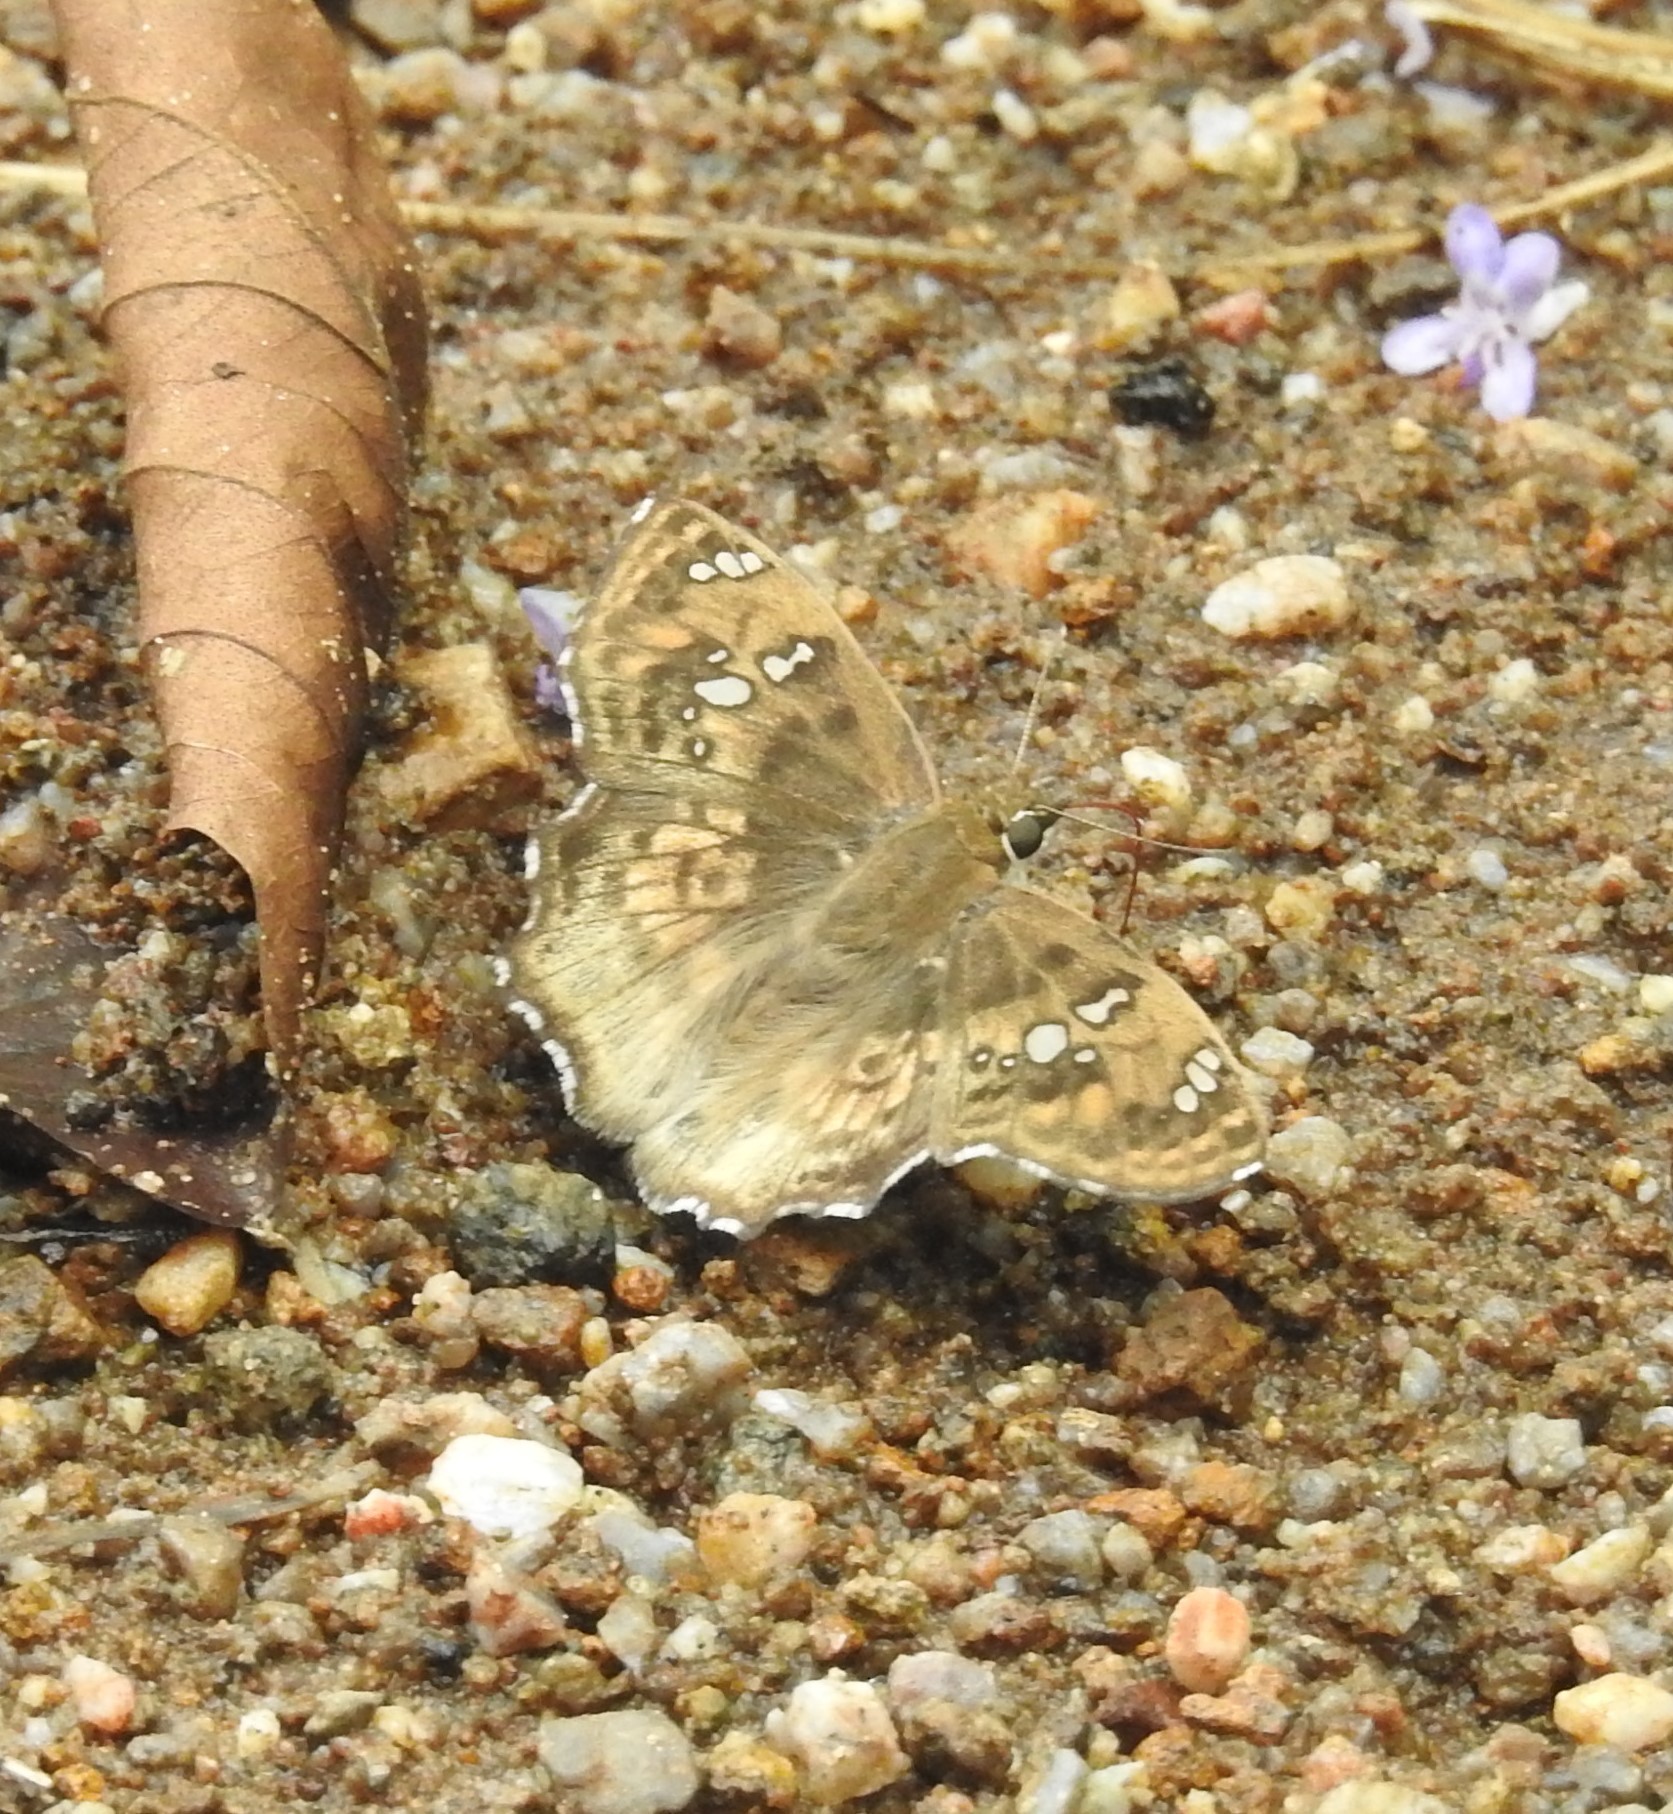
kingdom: Animalia
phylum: Arthropoda
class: Insecta
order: Lepidoptera
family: Hesperiidae
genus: Caprona
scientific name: Caprona ransonnettii
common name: Golden angle
